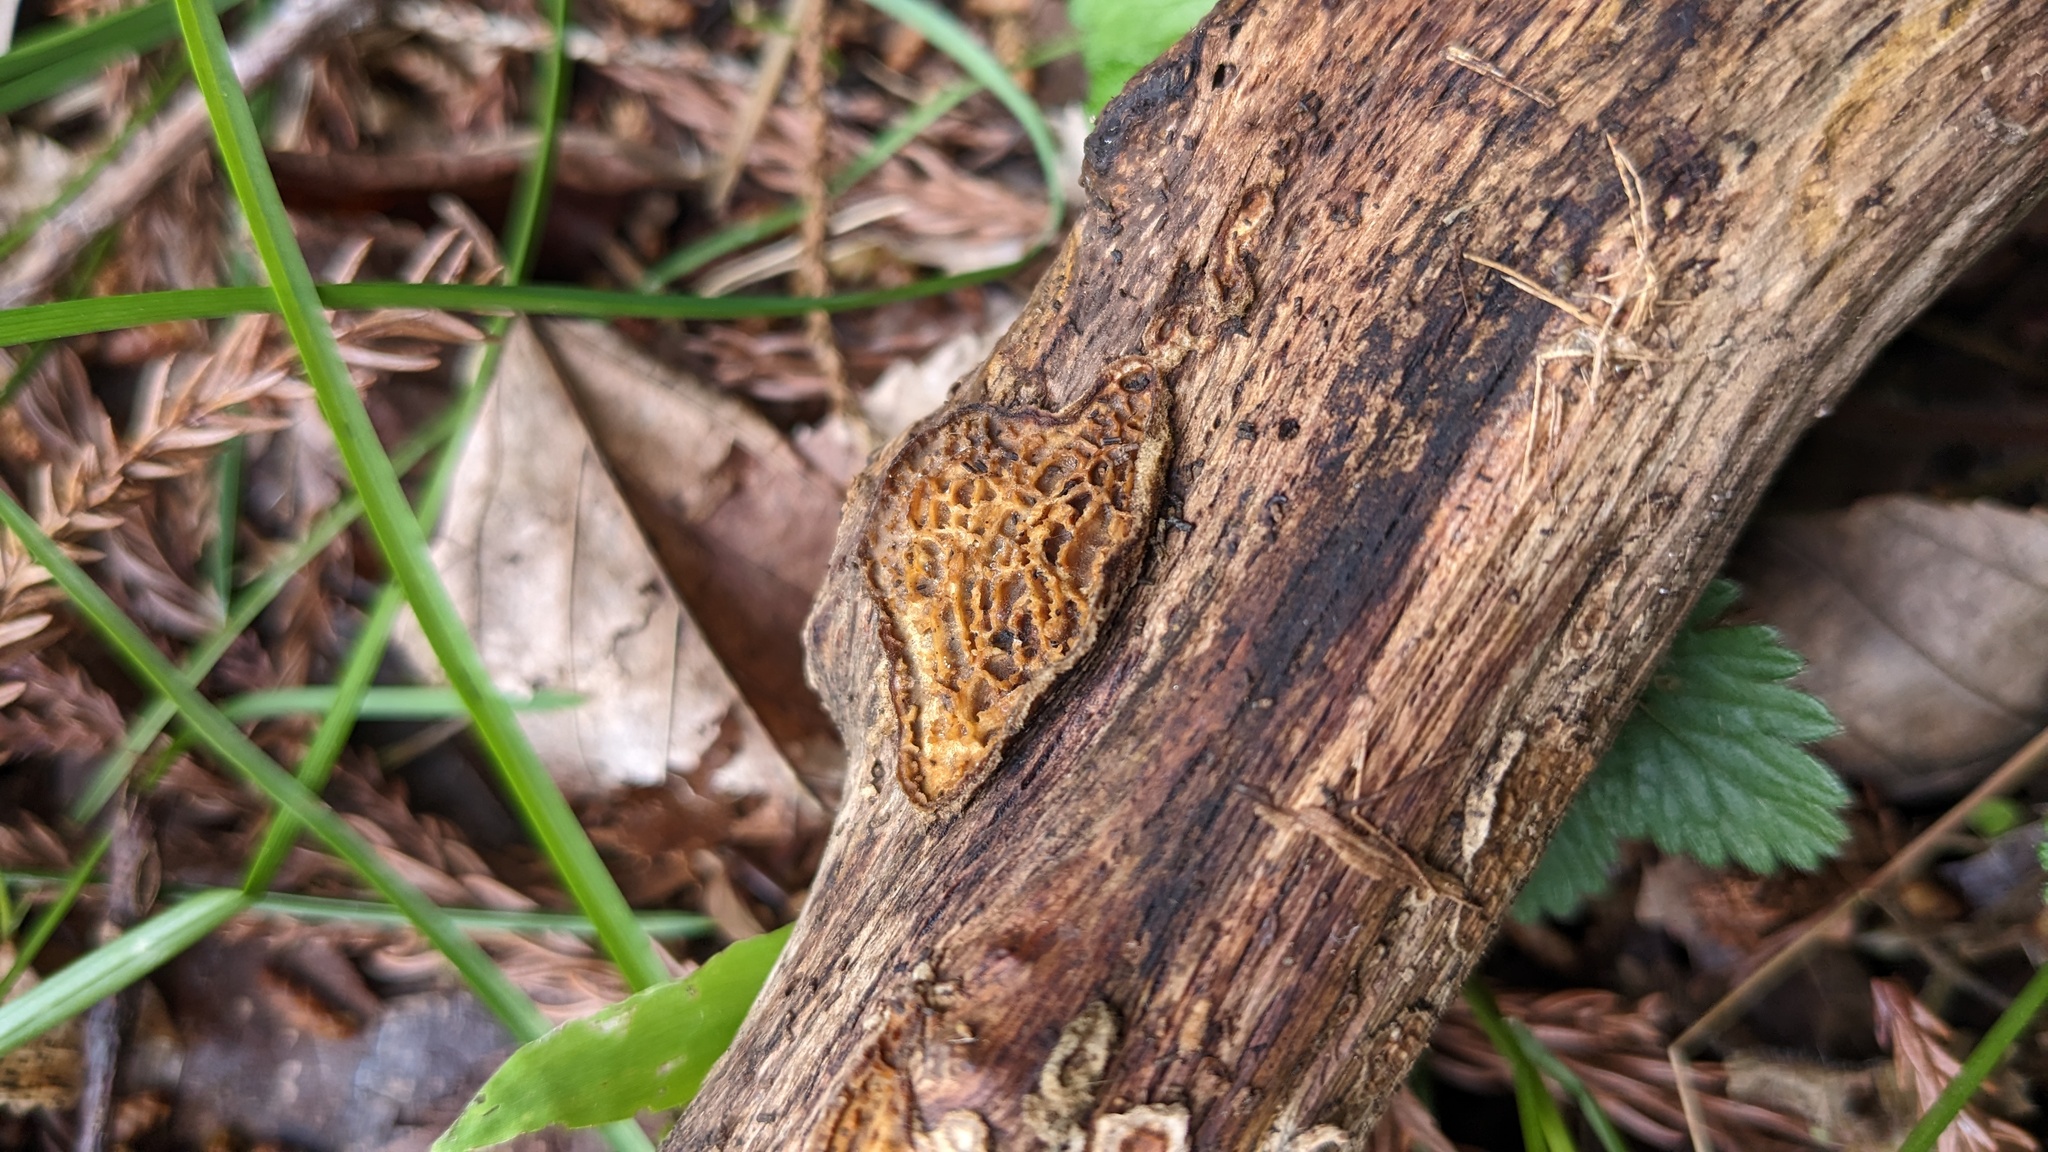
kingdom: Fungi
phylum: Basidiomycota
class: Agaricomycetes
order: Polyporales
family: Polyporaceae
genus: Lopharia
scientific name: Lopharia cinerascens
